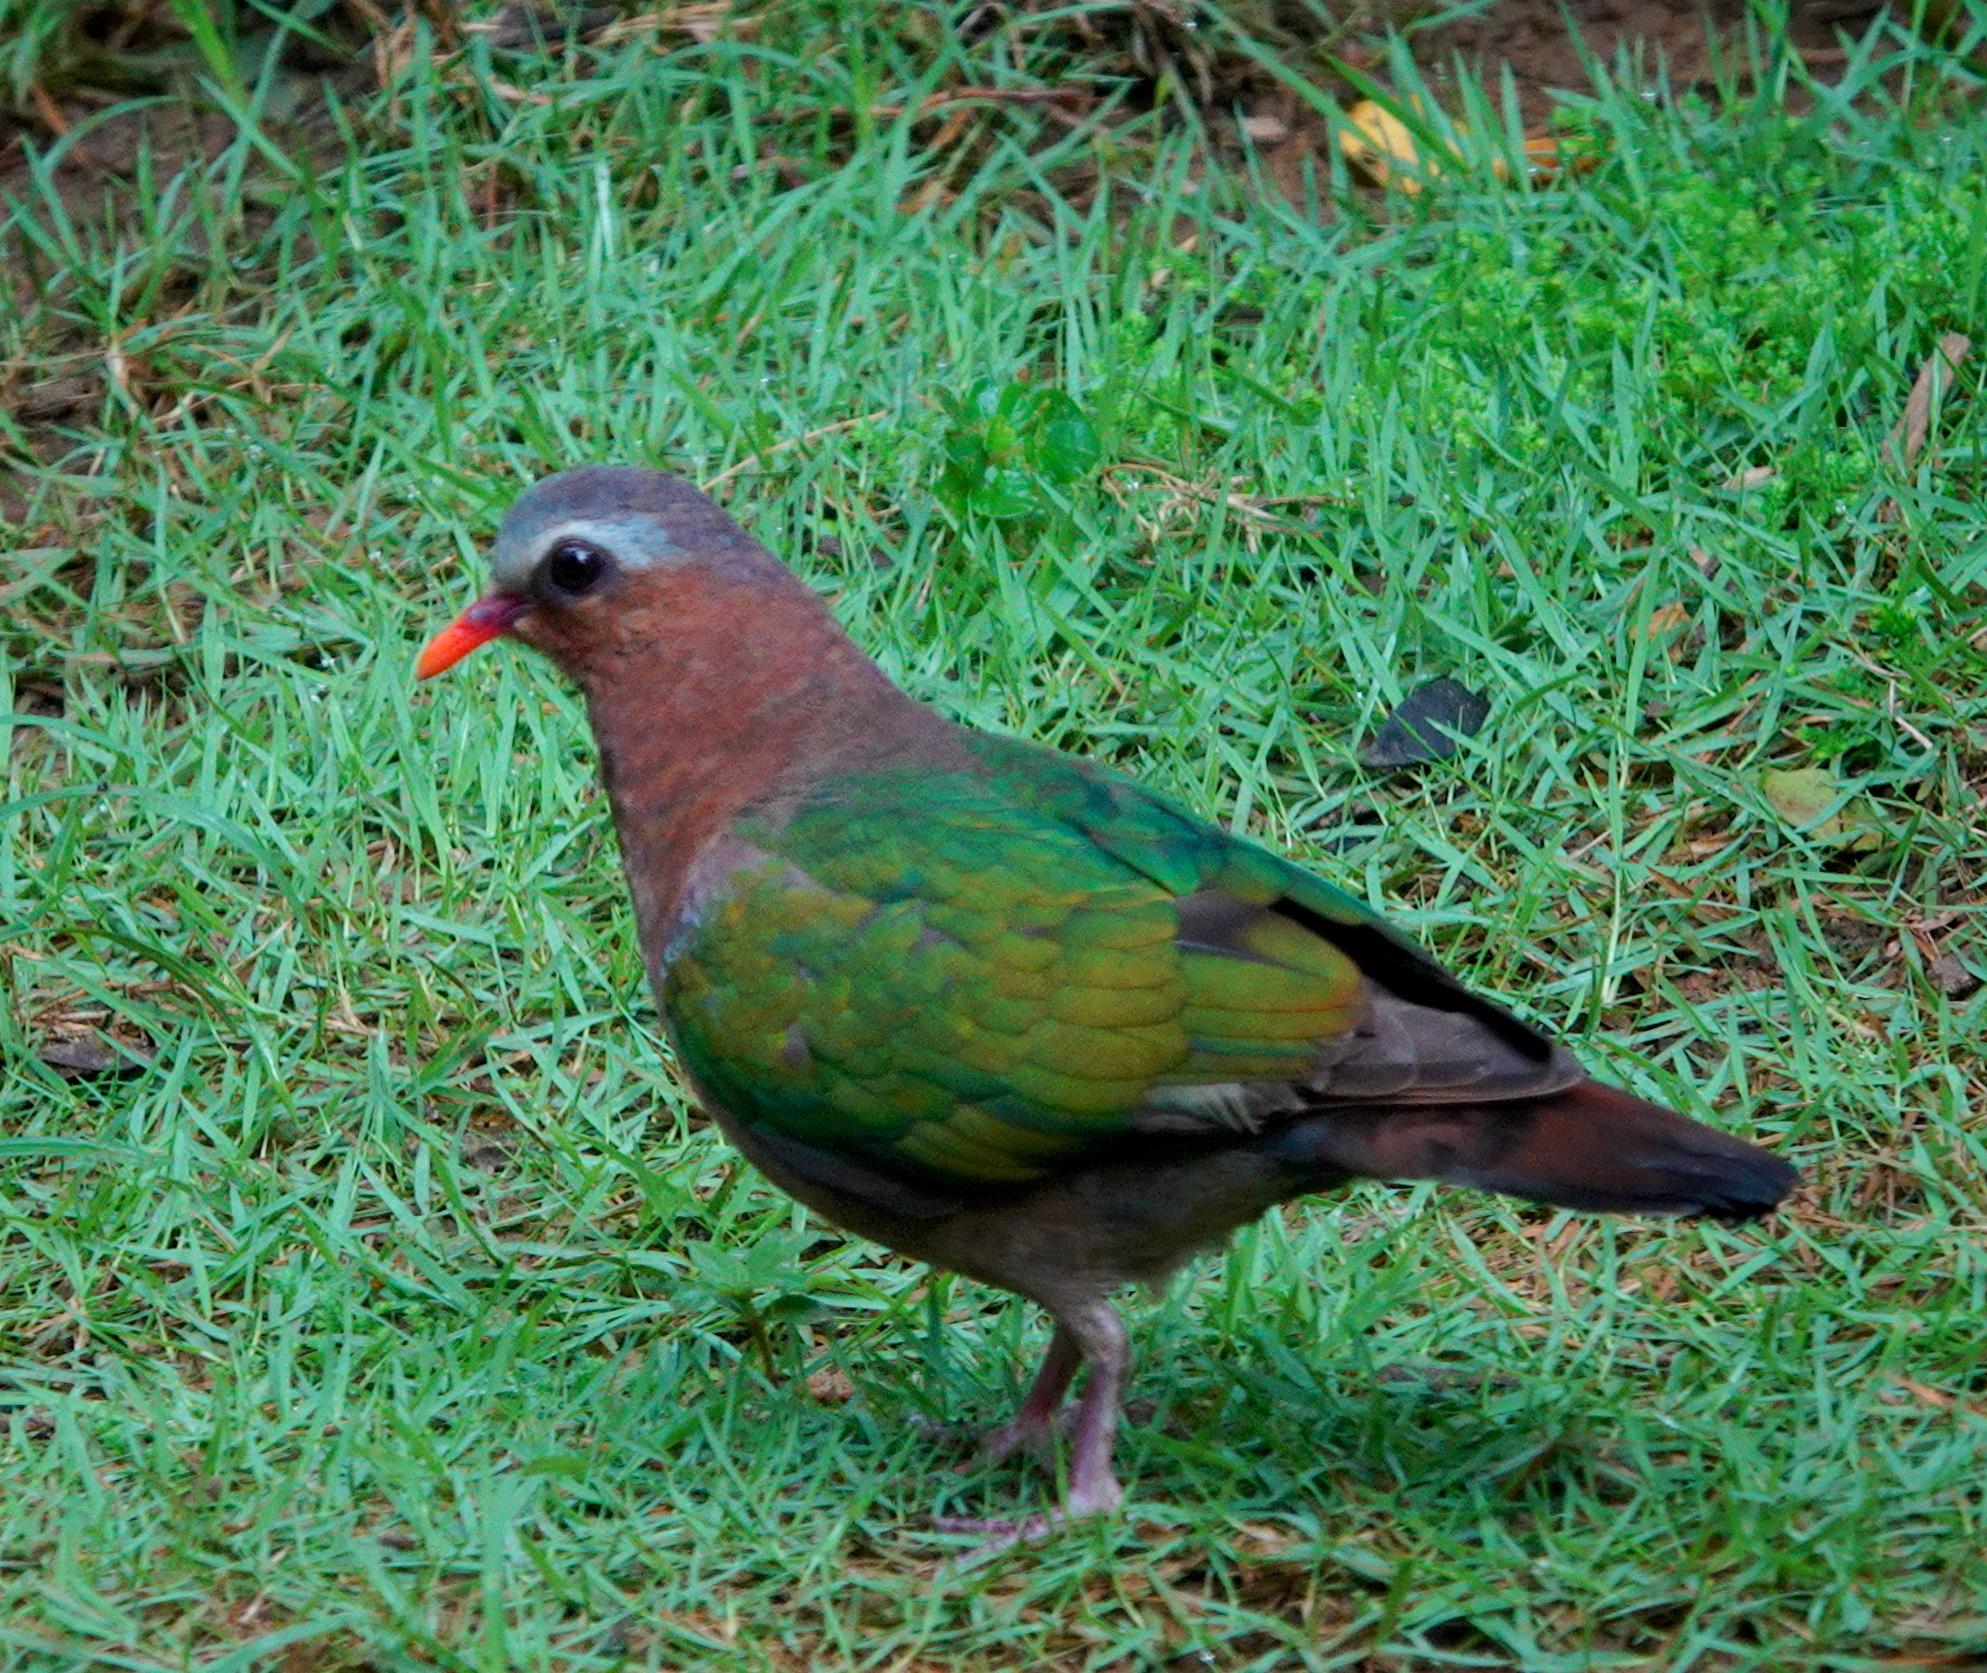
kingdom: Animalia
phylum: Chordata
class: Aves
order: Columbiformes
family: Columbidae
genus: Chalcophaps
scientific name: Chalcophaps indica
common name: Common emerald dove
